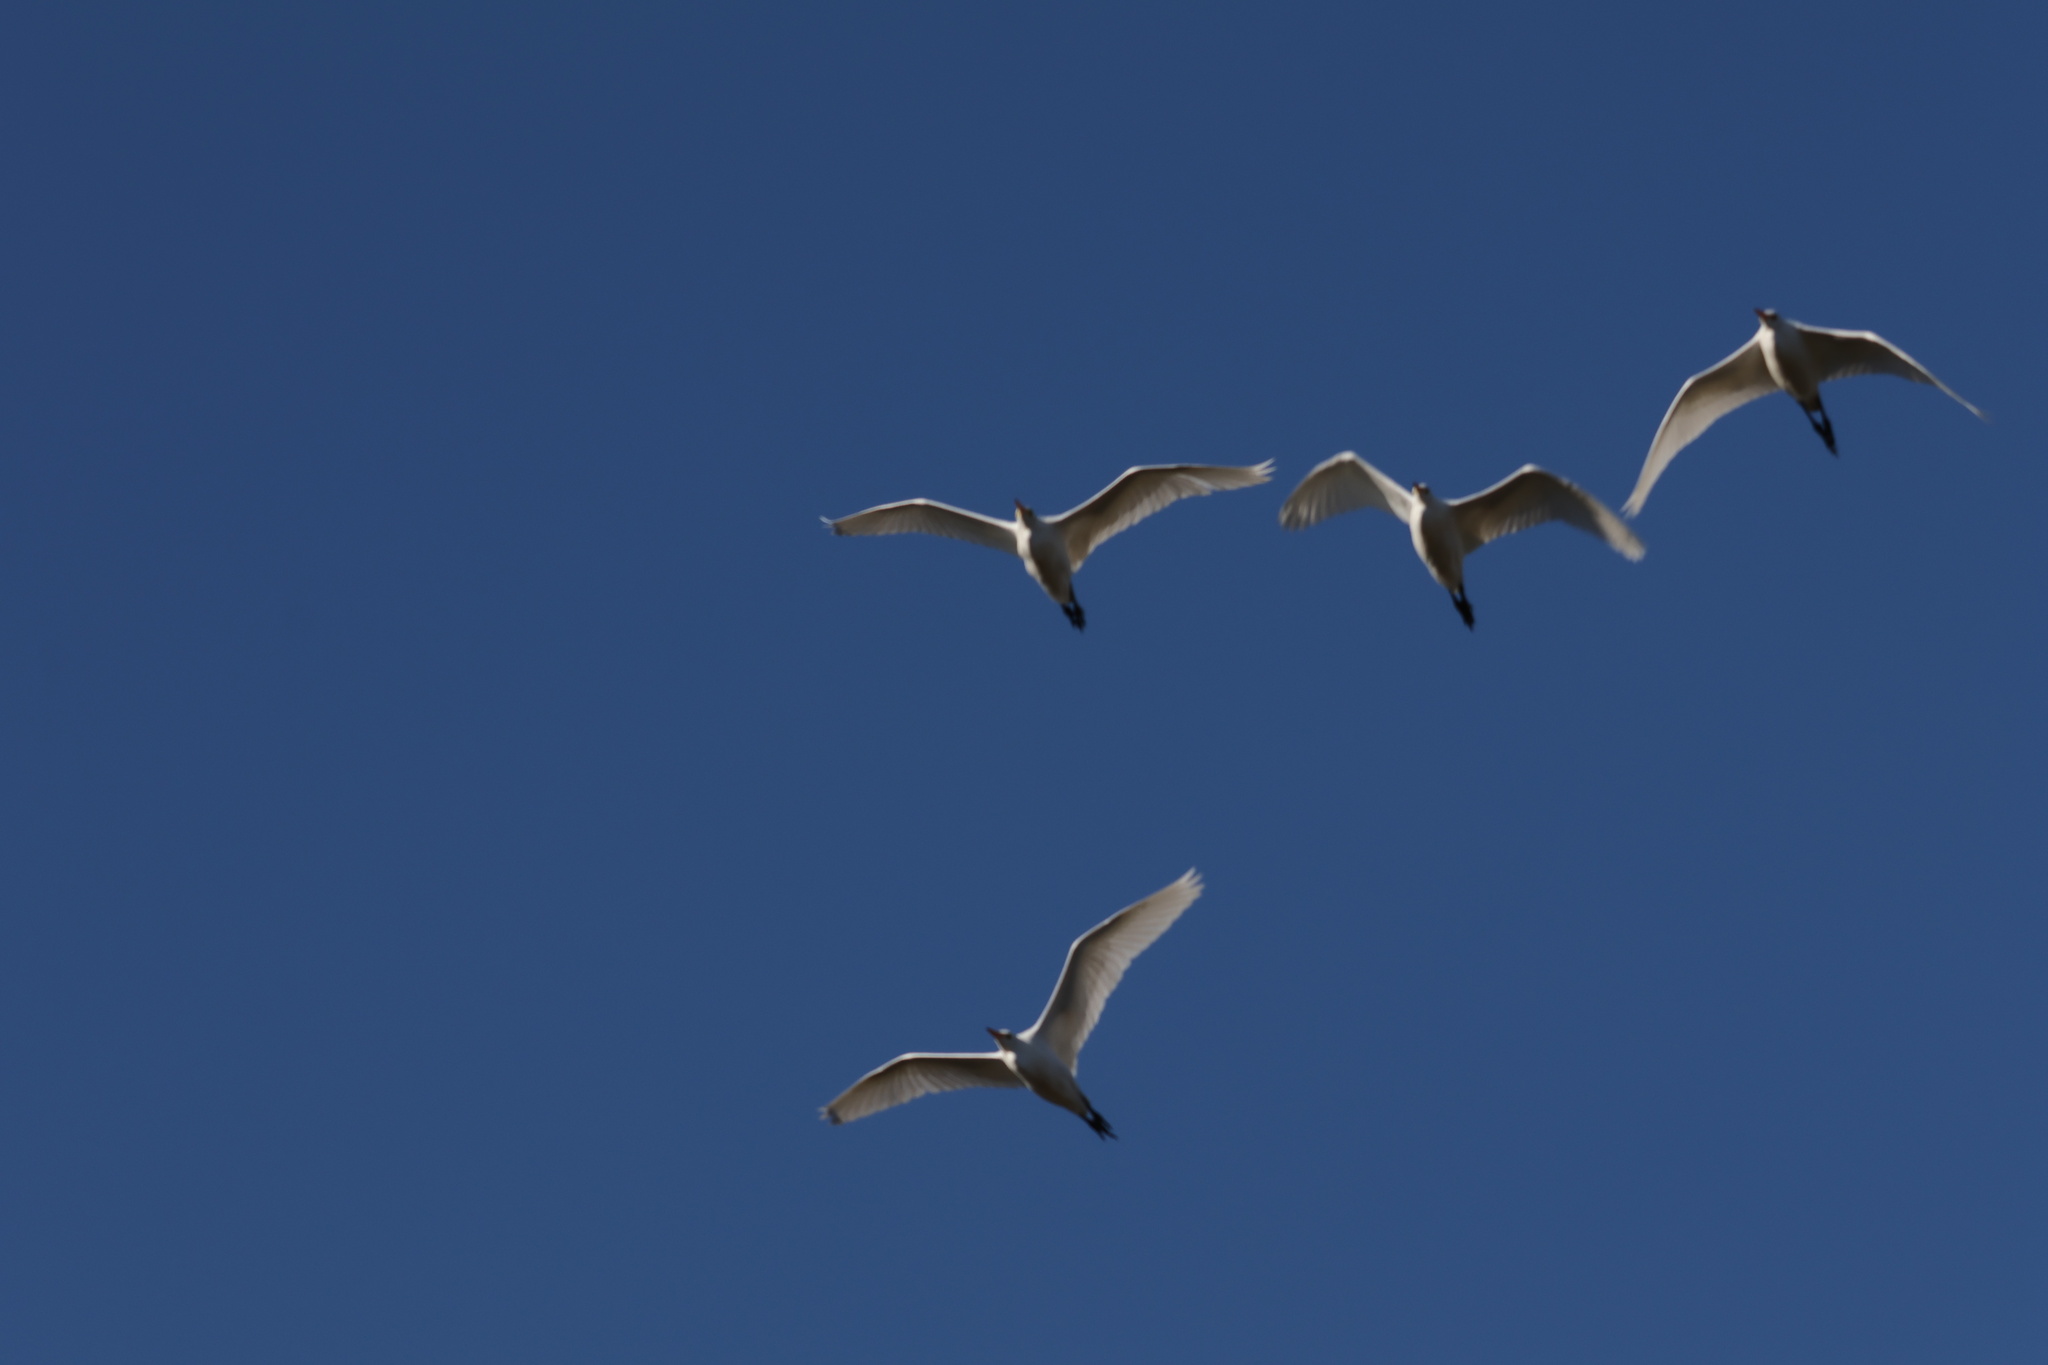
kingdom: Animalia
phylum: Chordata
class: Aves
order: Pelecaniformes
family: Ardeidae
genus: Bubulcus
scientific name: Bubulcus ibis
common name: Cattle egret
